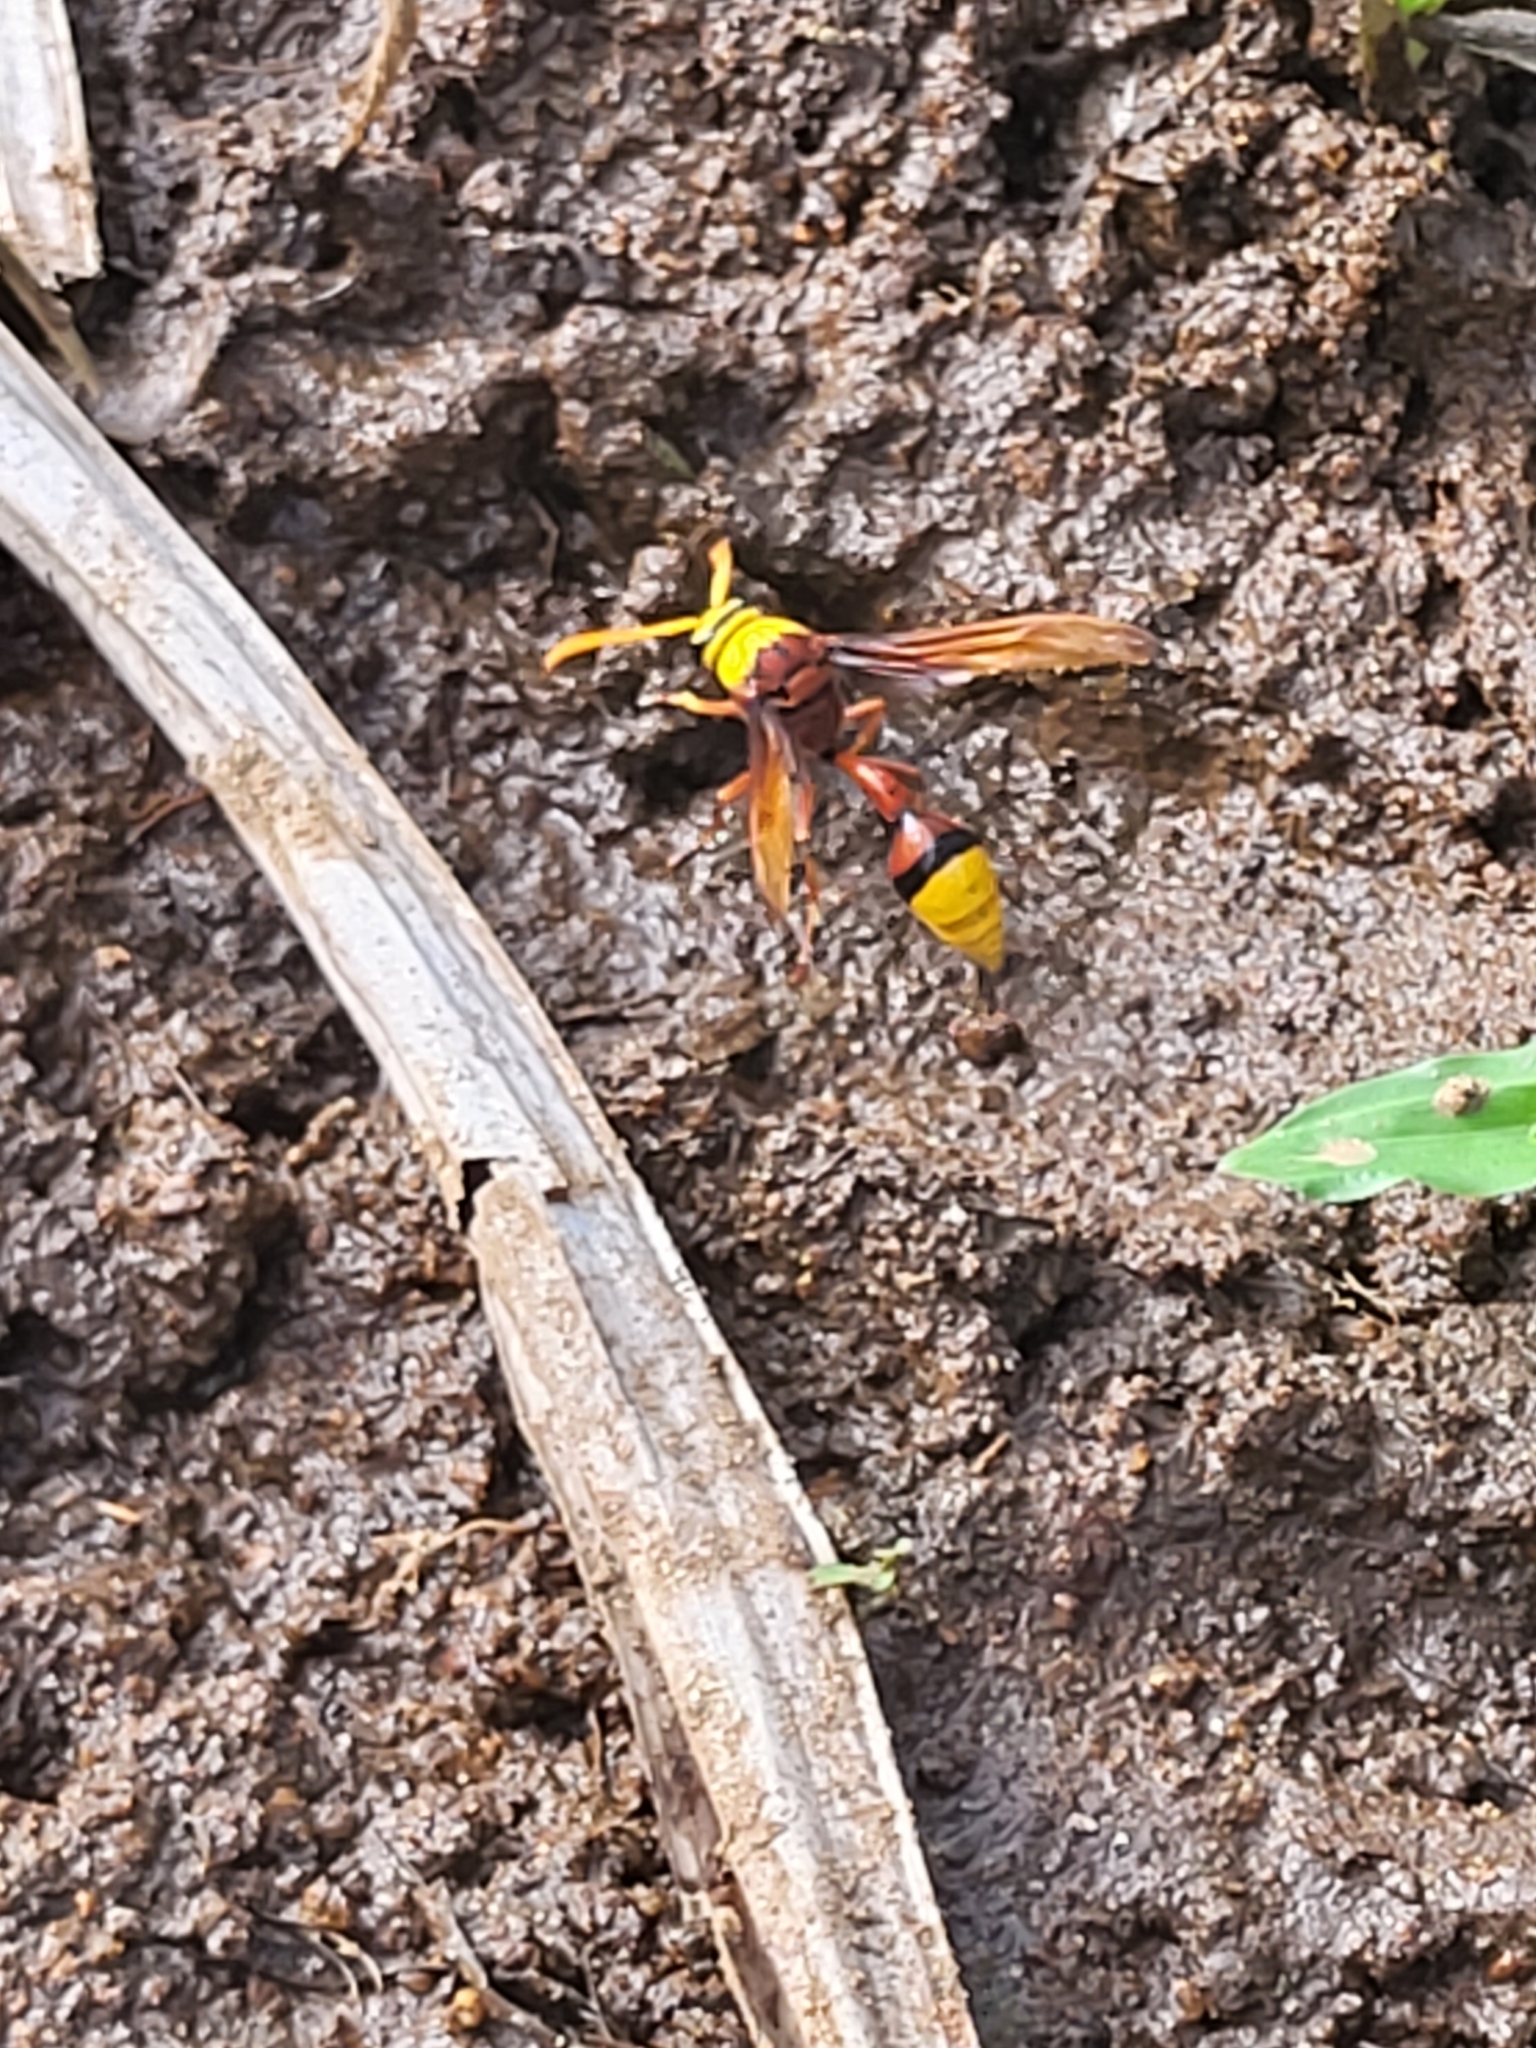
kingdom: Animalia
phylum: Arthropoda
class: Insecta
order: Hymenoptera
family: Eumenidae
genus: Delta
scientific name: Delta pyriforme
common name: Wasp
